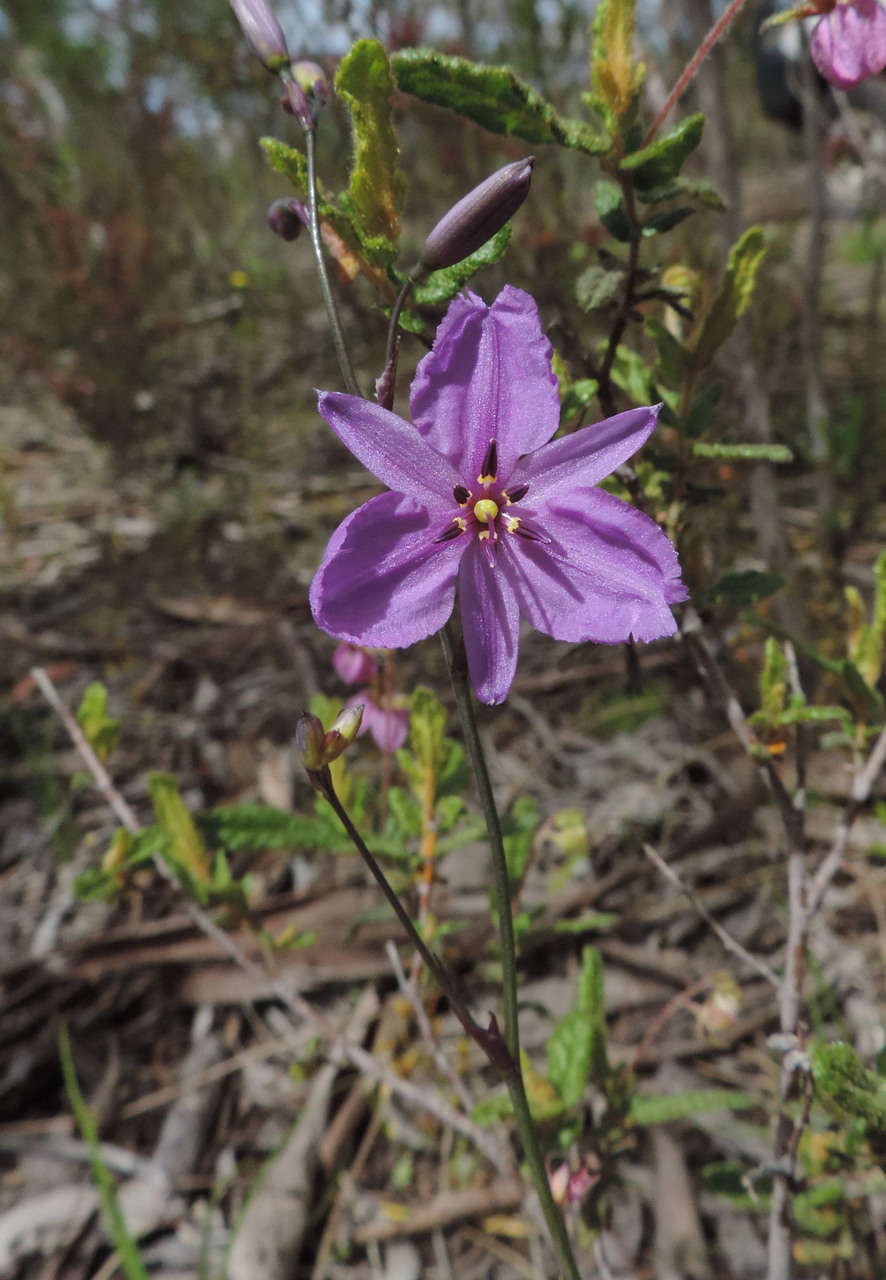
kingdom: Plantae
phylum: Tracheophyta
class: Liliopsida
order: Asparagales
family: Asparagaceae
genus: Arthropodium
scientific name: Arthropodium strictum
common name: Chocolate-lily
